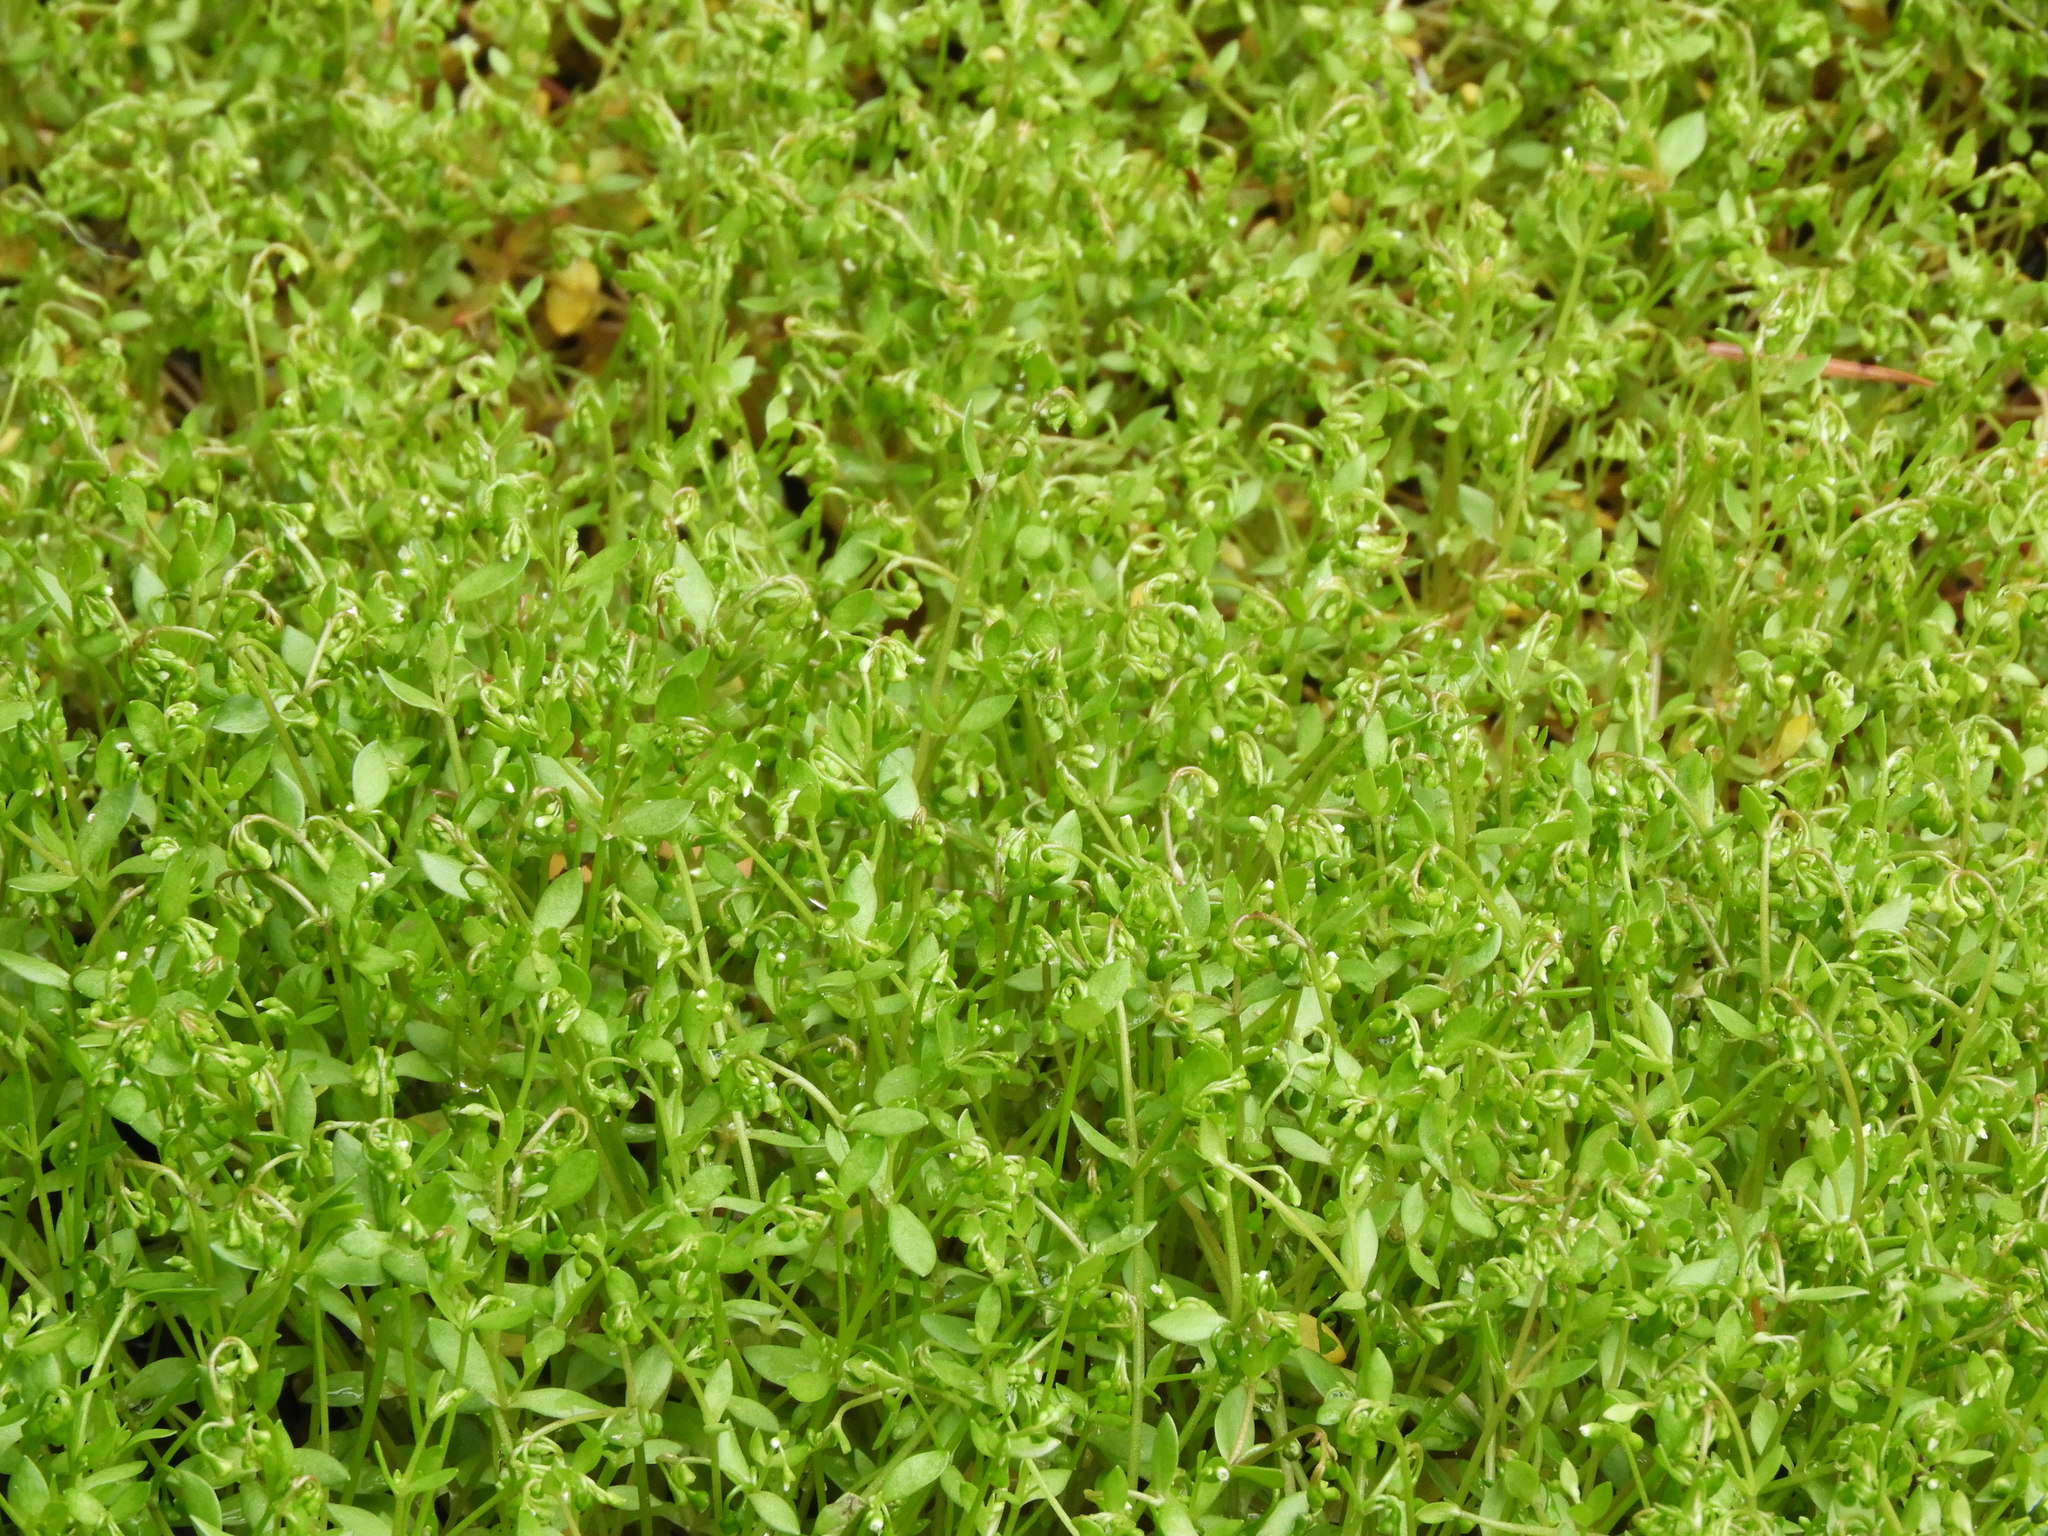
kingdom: Plantae
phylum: Tracheophyta
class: Magnoliopsida
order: Caryophyllales
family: Montiaceae
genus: Montia
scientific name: Montia fontana
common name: Blinks
